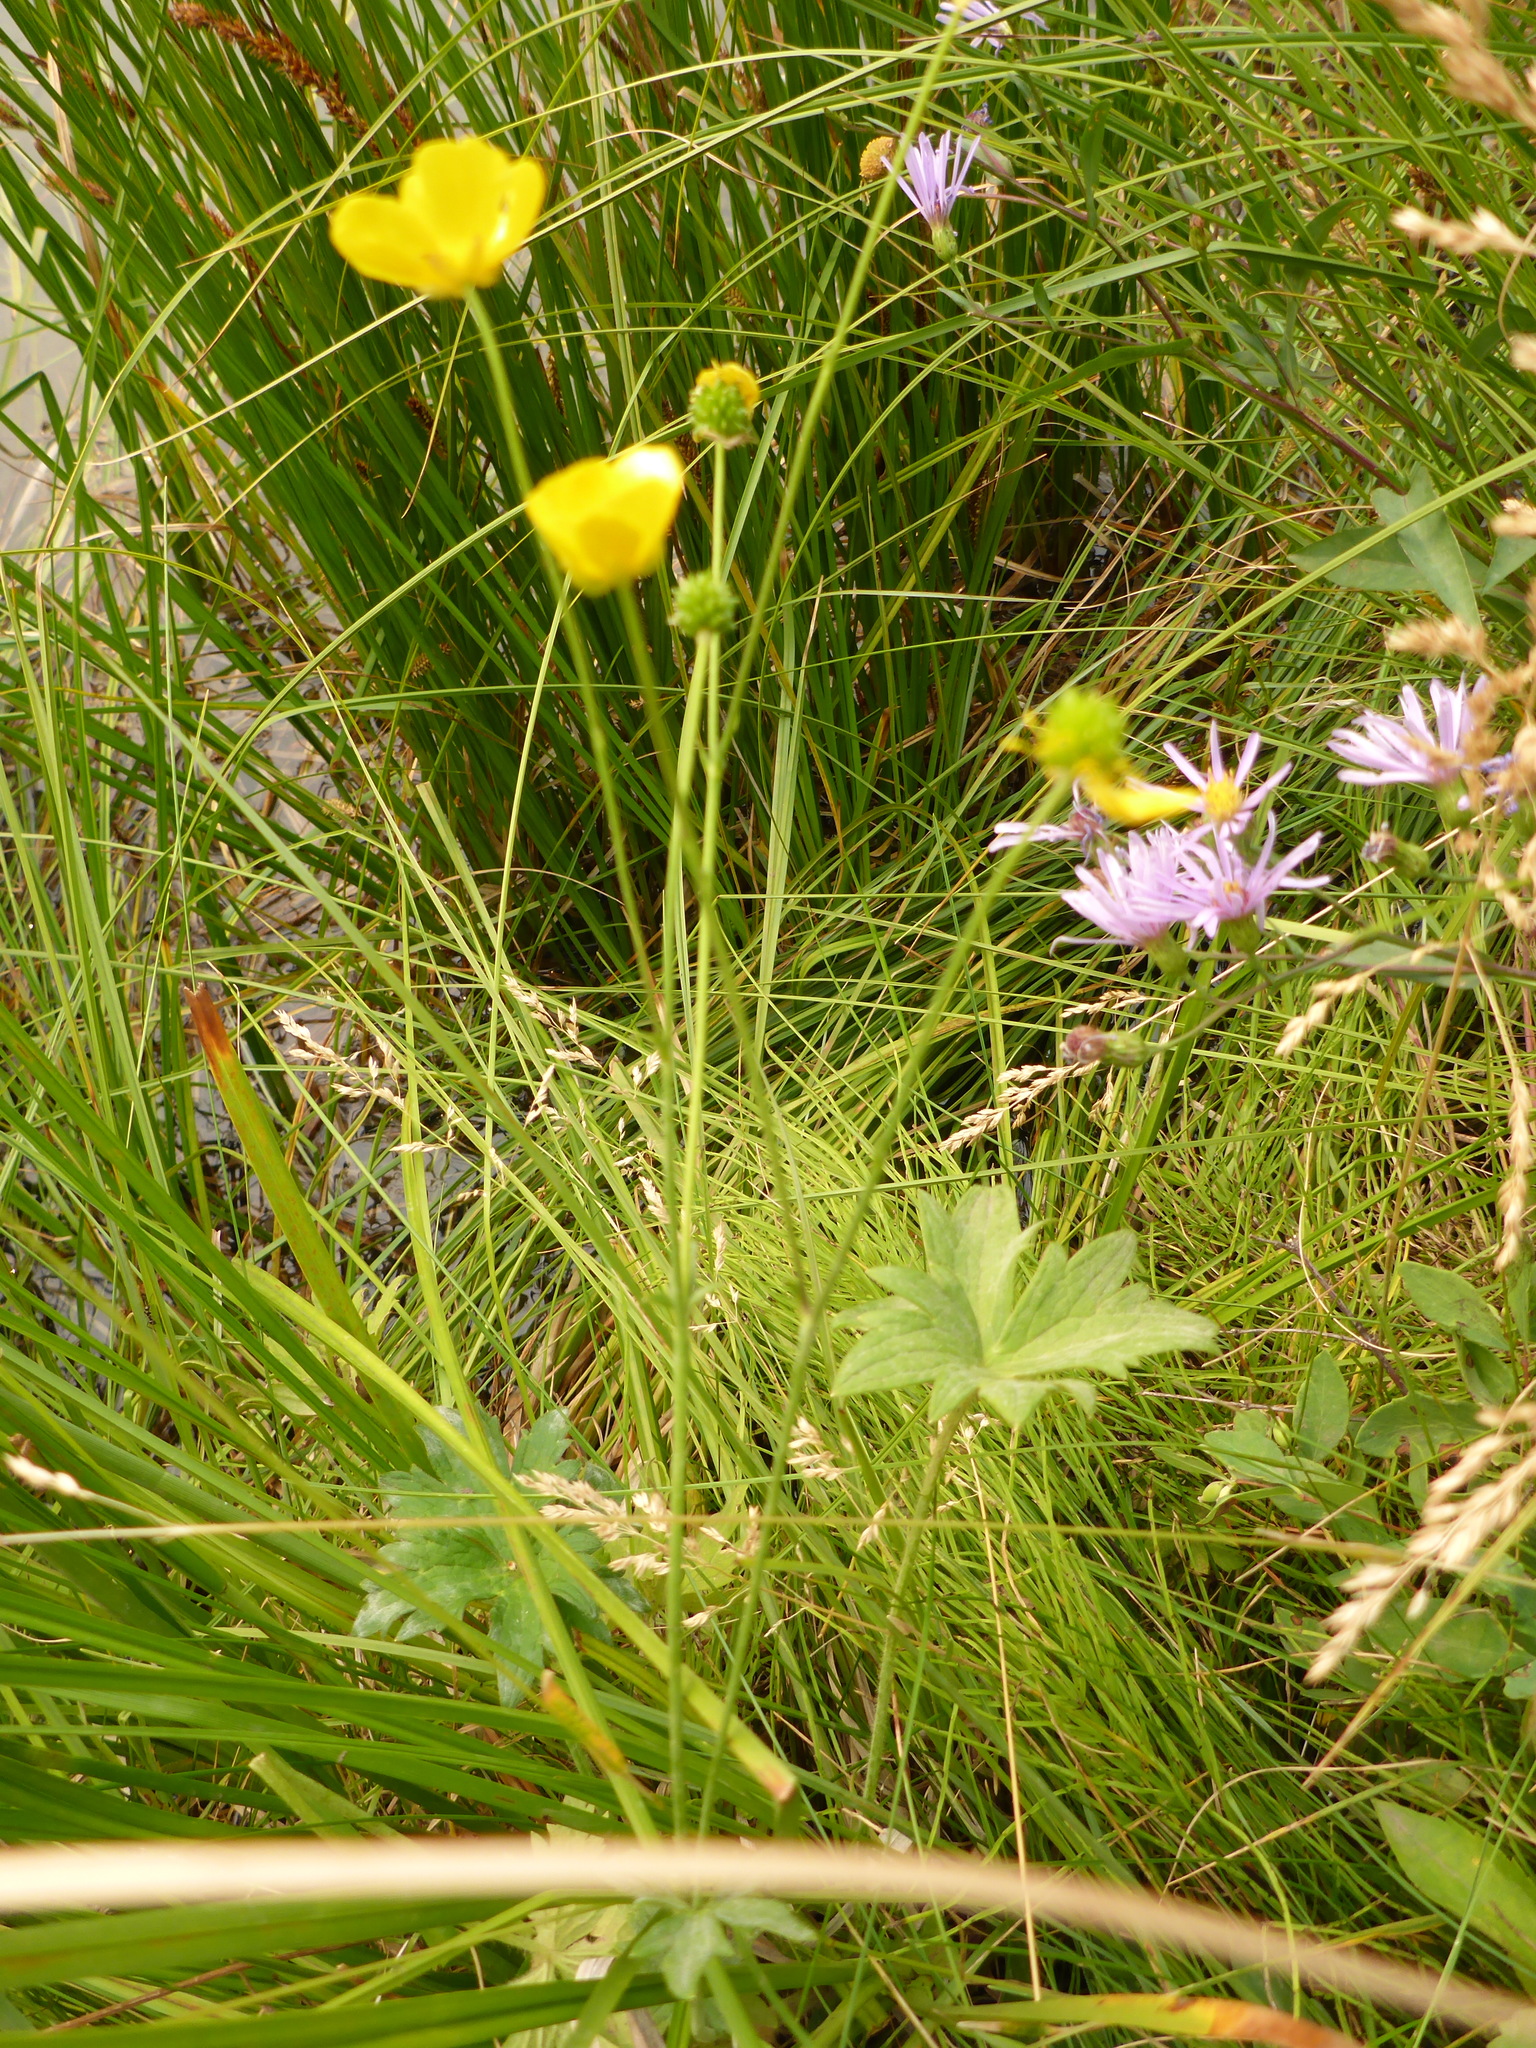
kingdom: Plantae
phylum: Tracheophyta
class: Magnoliopsida
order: Ranunculales
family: Ranunculaceae
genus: Ranunculus
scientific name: Ranunculus acris
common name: Meadow buttercup
